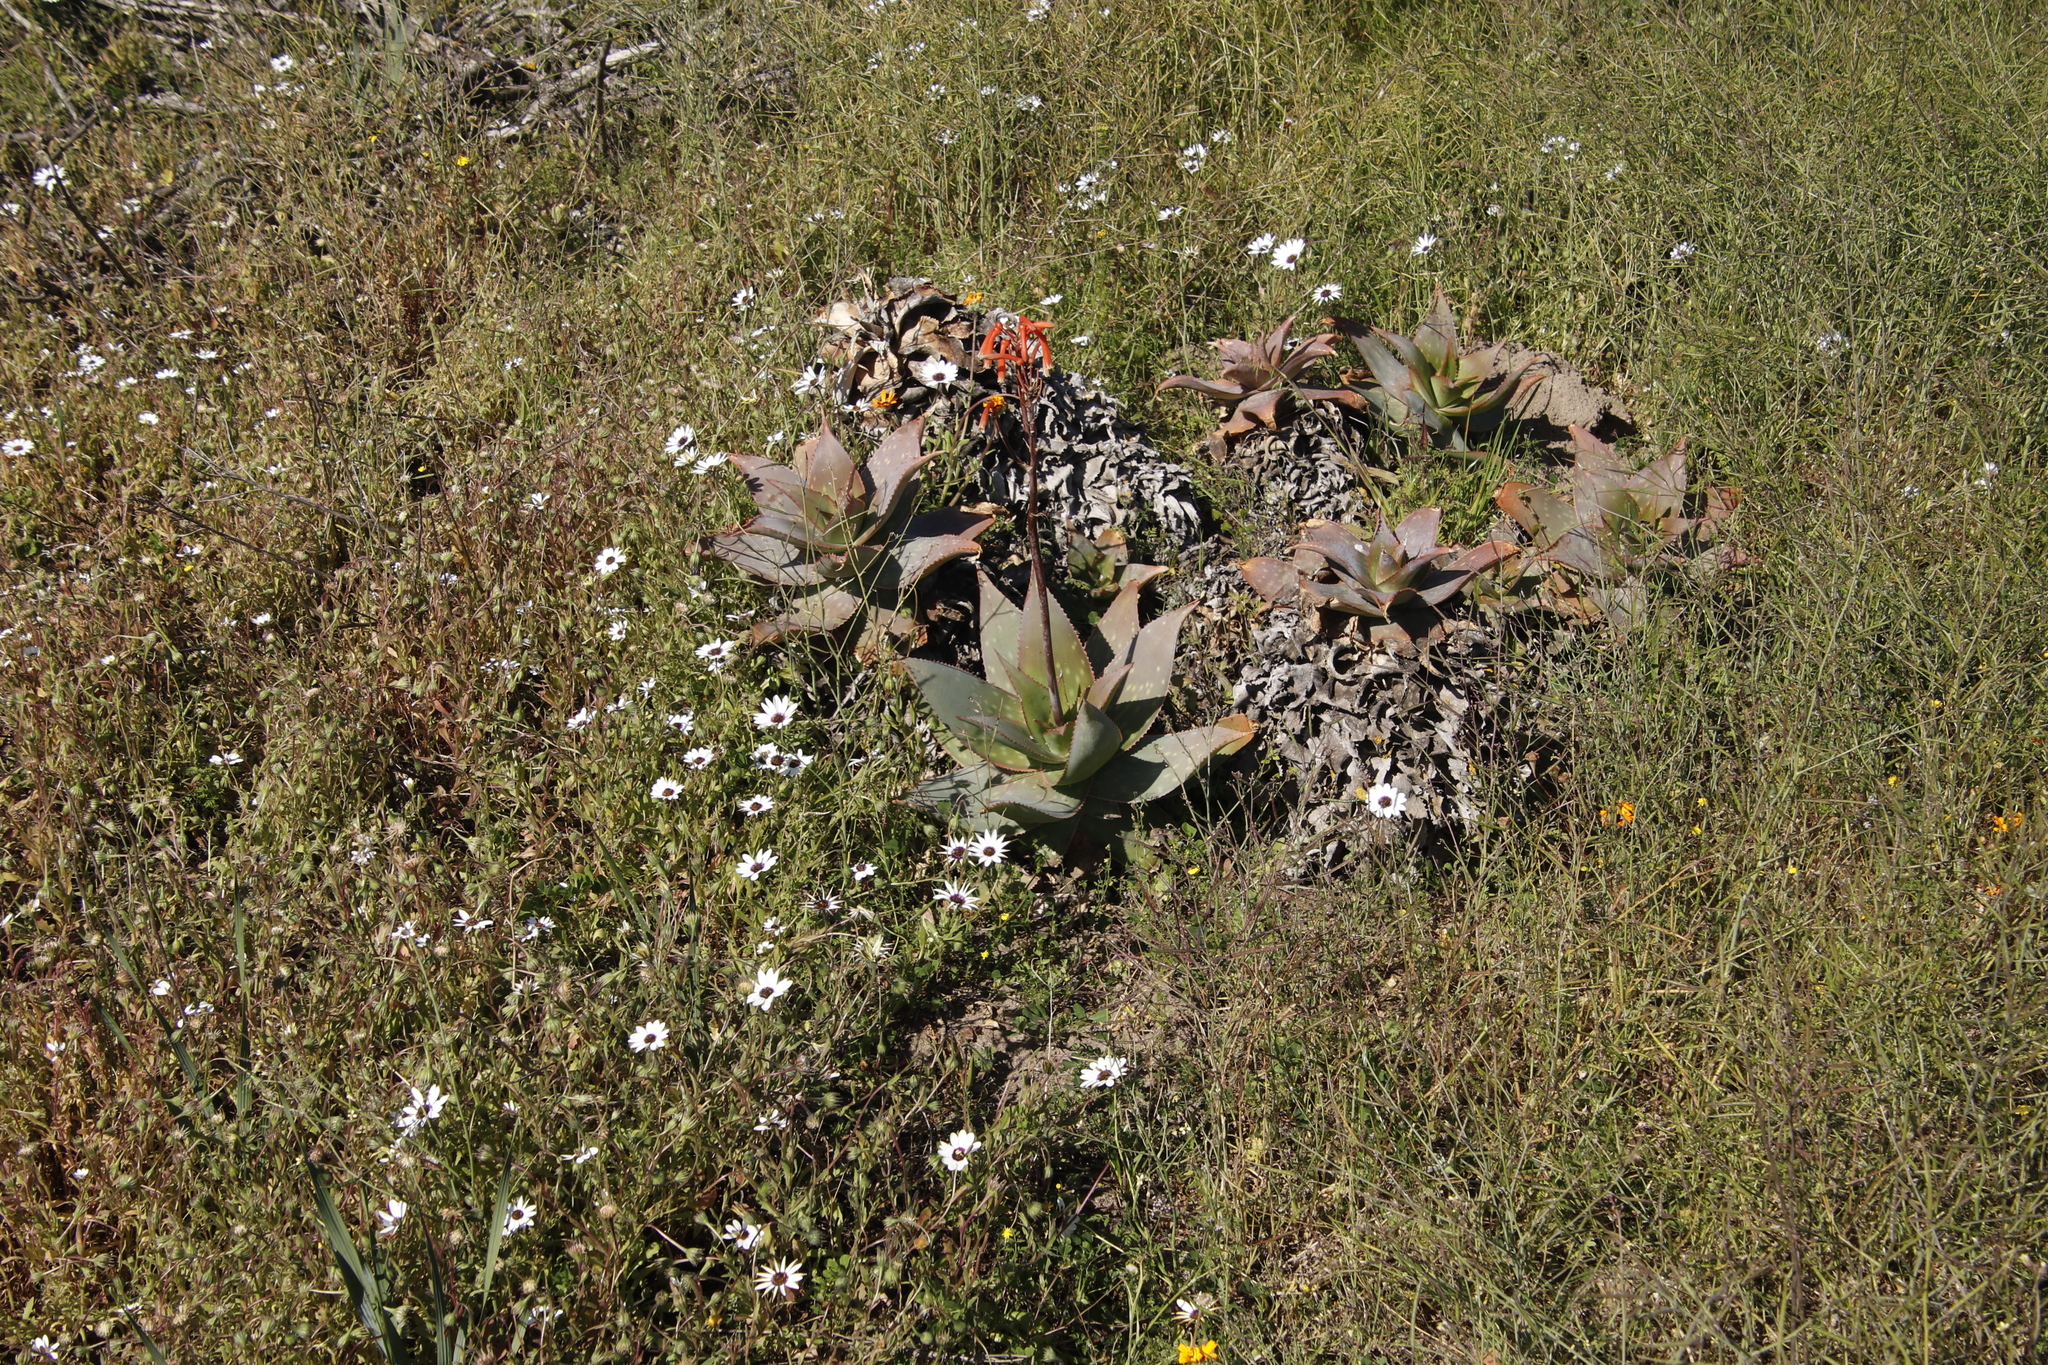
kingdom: Plantae
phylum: Tracheophyta
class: Liliopsida
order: Asparagales
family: Asphodelaceae
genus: Aloe
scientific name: Aloe schimperi
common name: Spotted aloe hybrid
